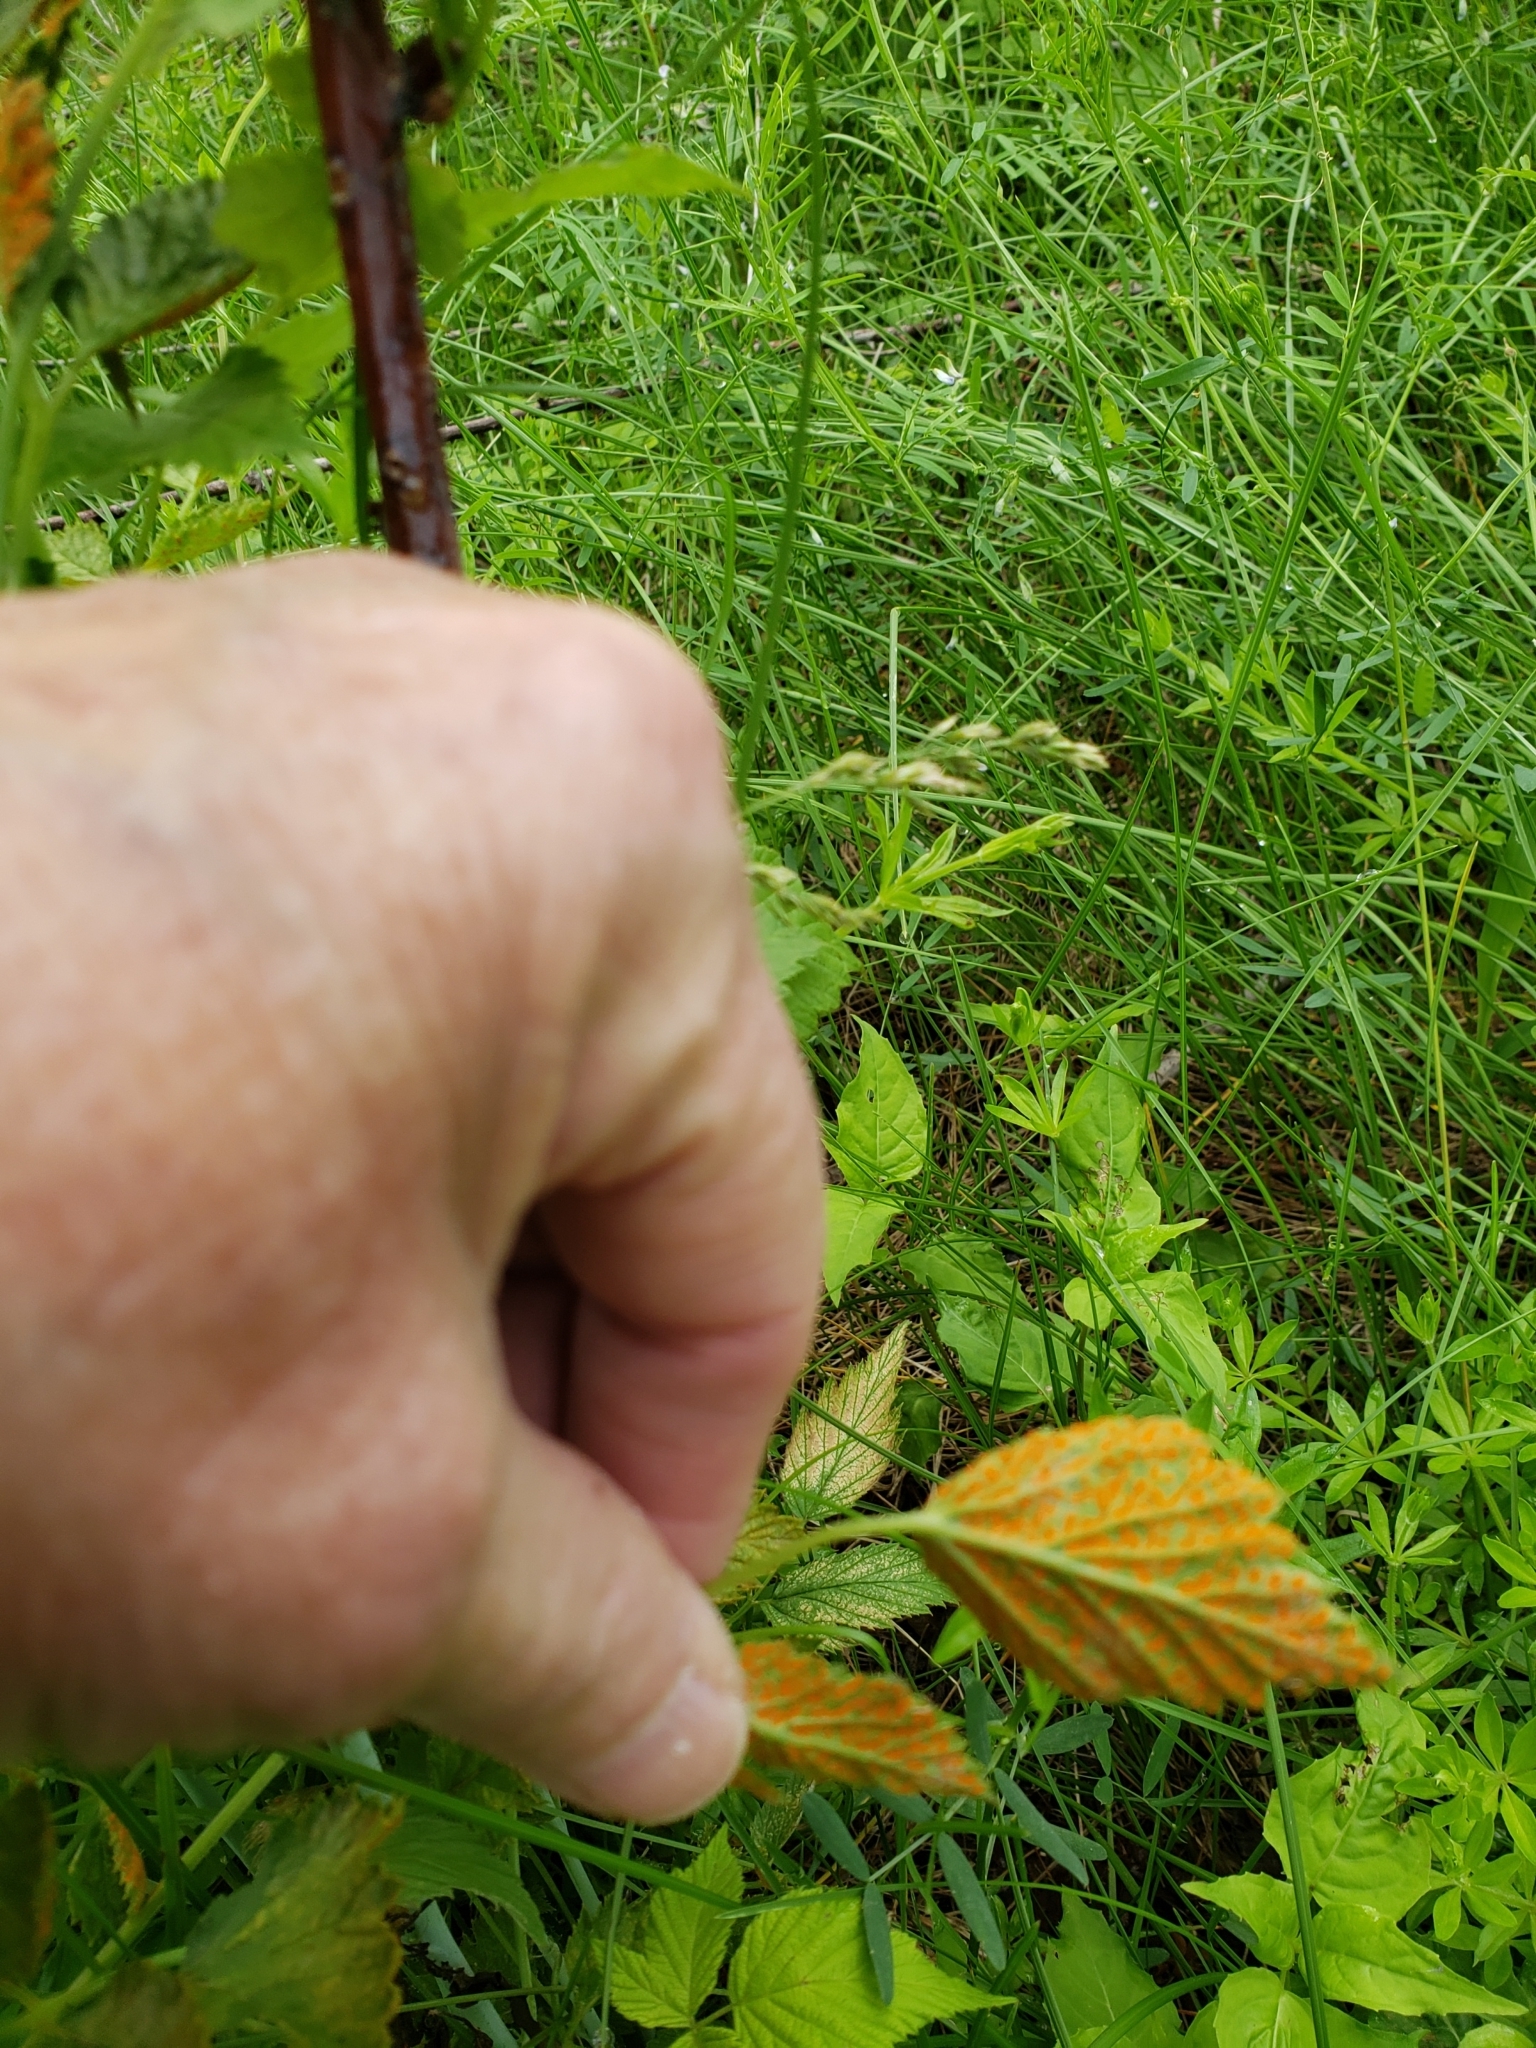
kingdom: Fungi
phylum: Basidiomycota
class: Pucciniomycetes
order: Pucciniales
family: Phragmidiaceae
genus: Arthuriomyces
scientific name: Arthuriomyces peckianus
